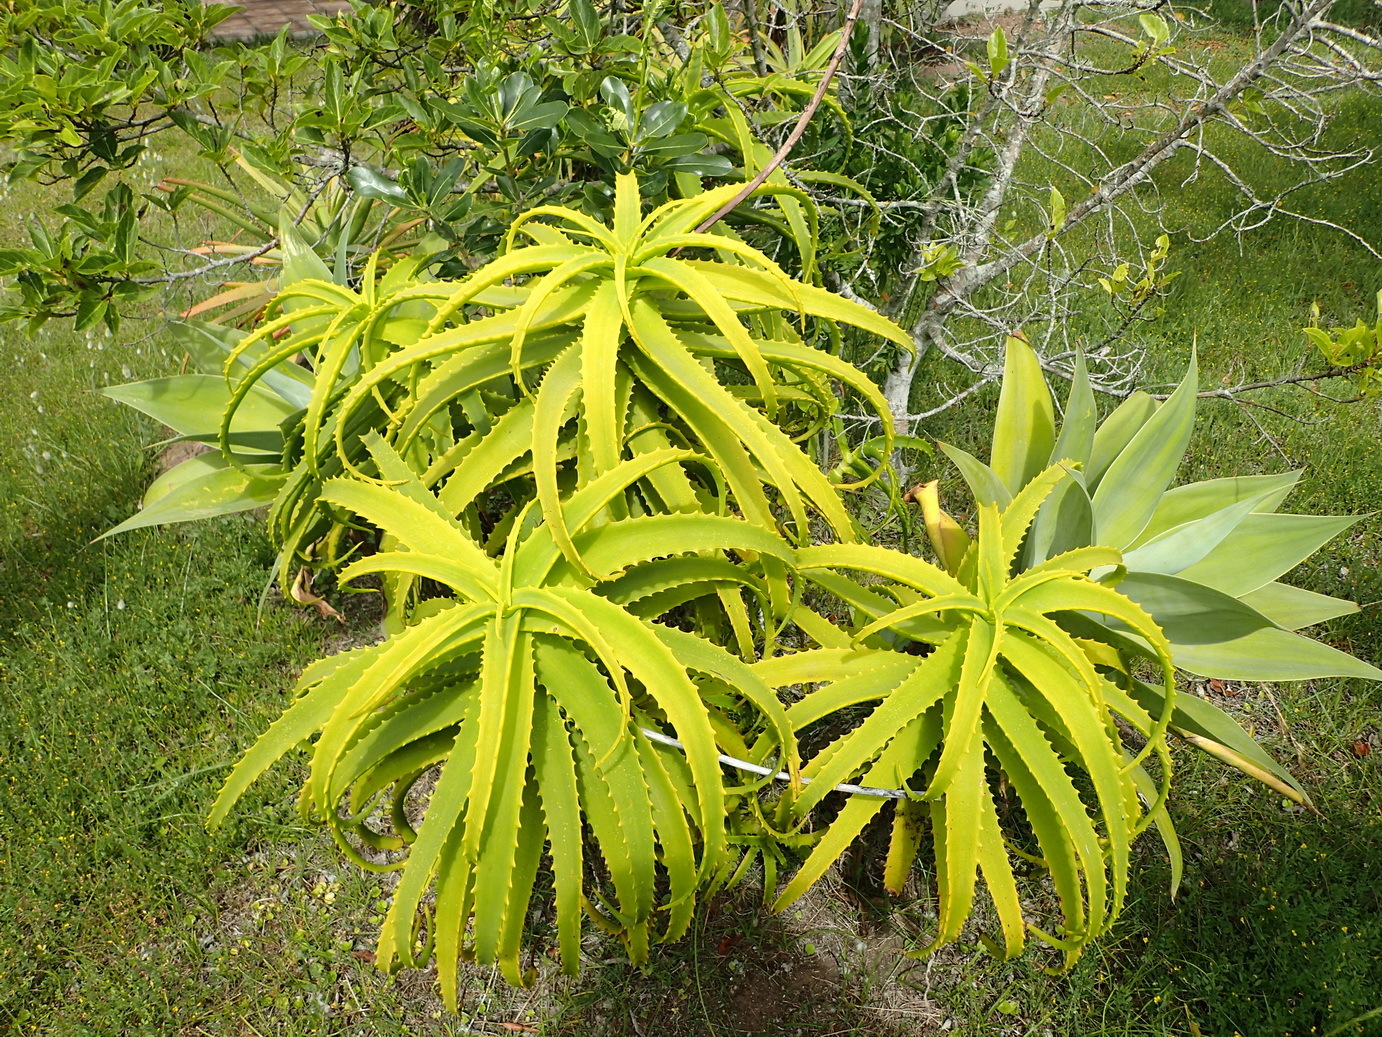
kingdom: Plantae
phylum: Tracheophyta
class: Liliopsida
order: Asparagales
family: Asphodelaceae
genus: Aloe
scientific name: Aloe arborescens
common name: Candelabra aloe
